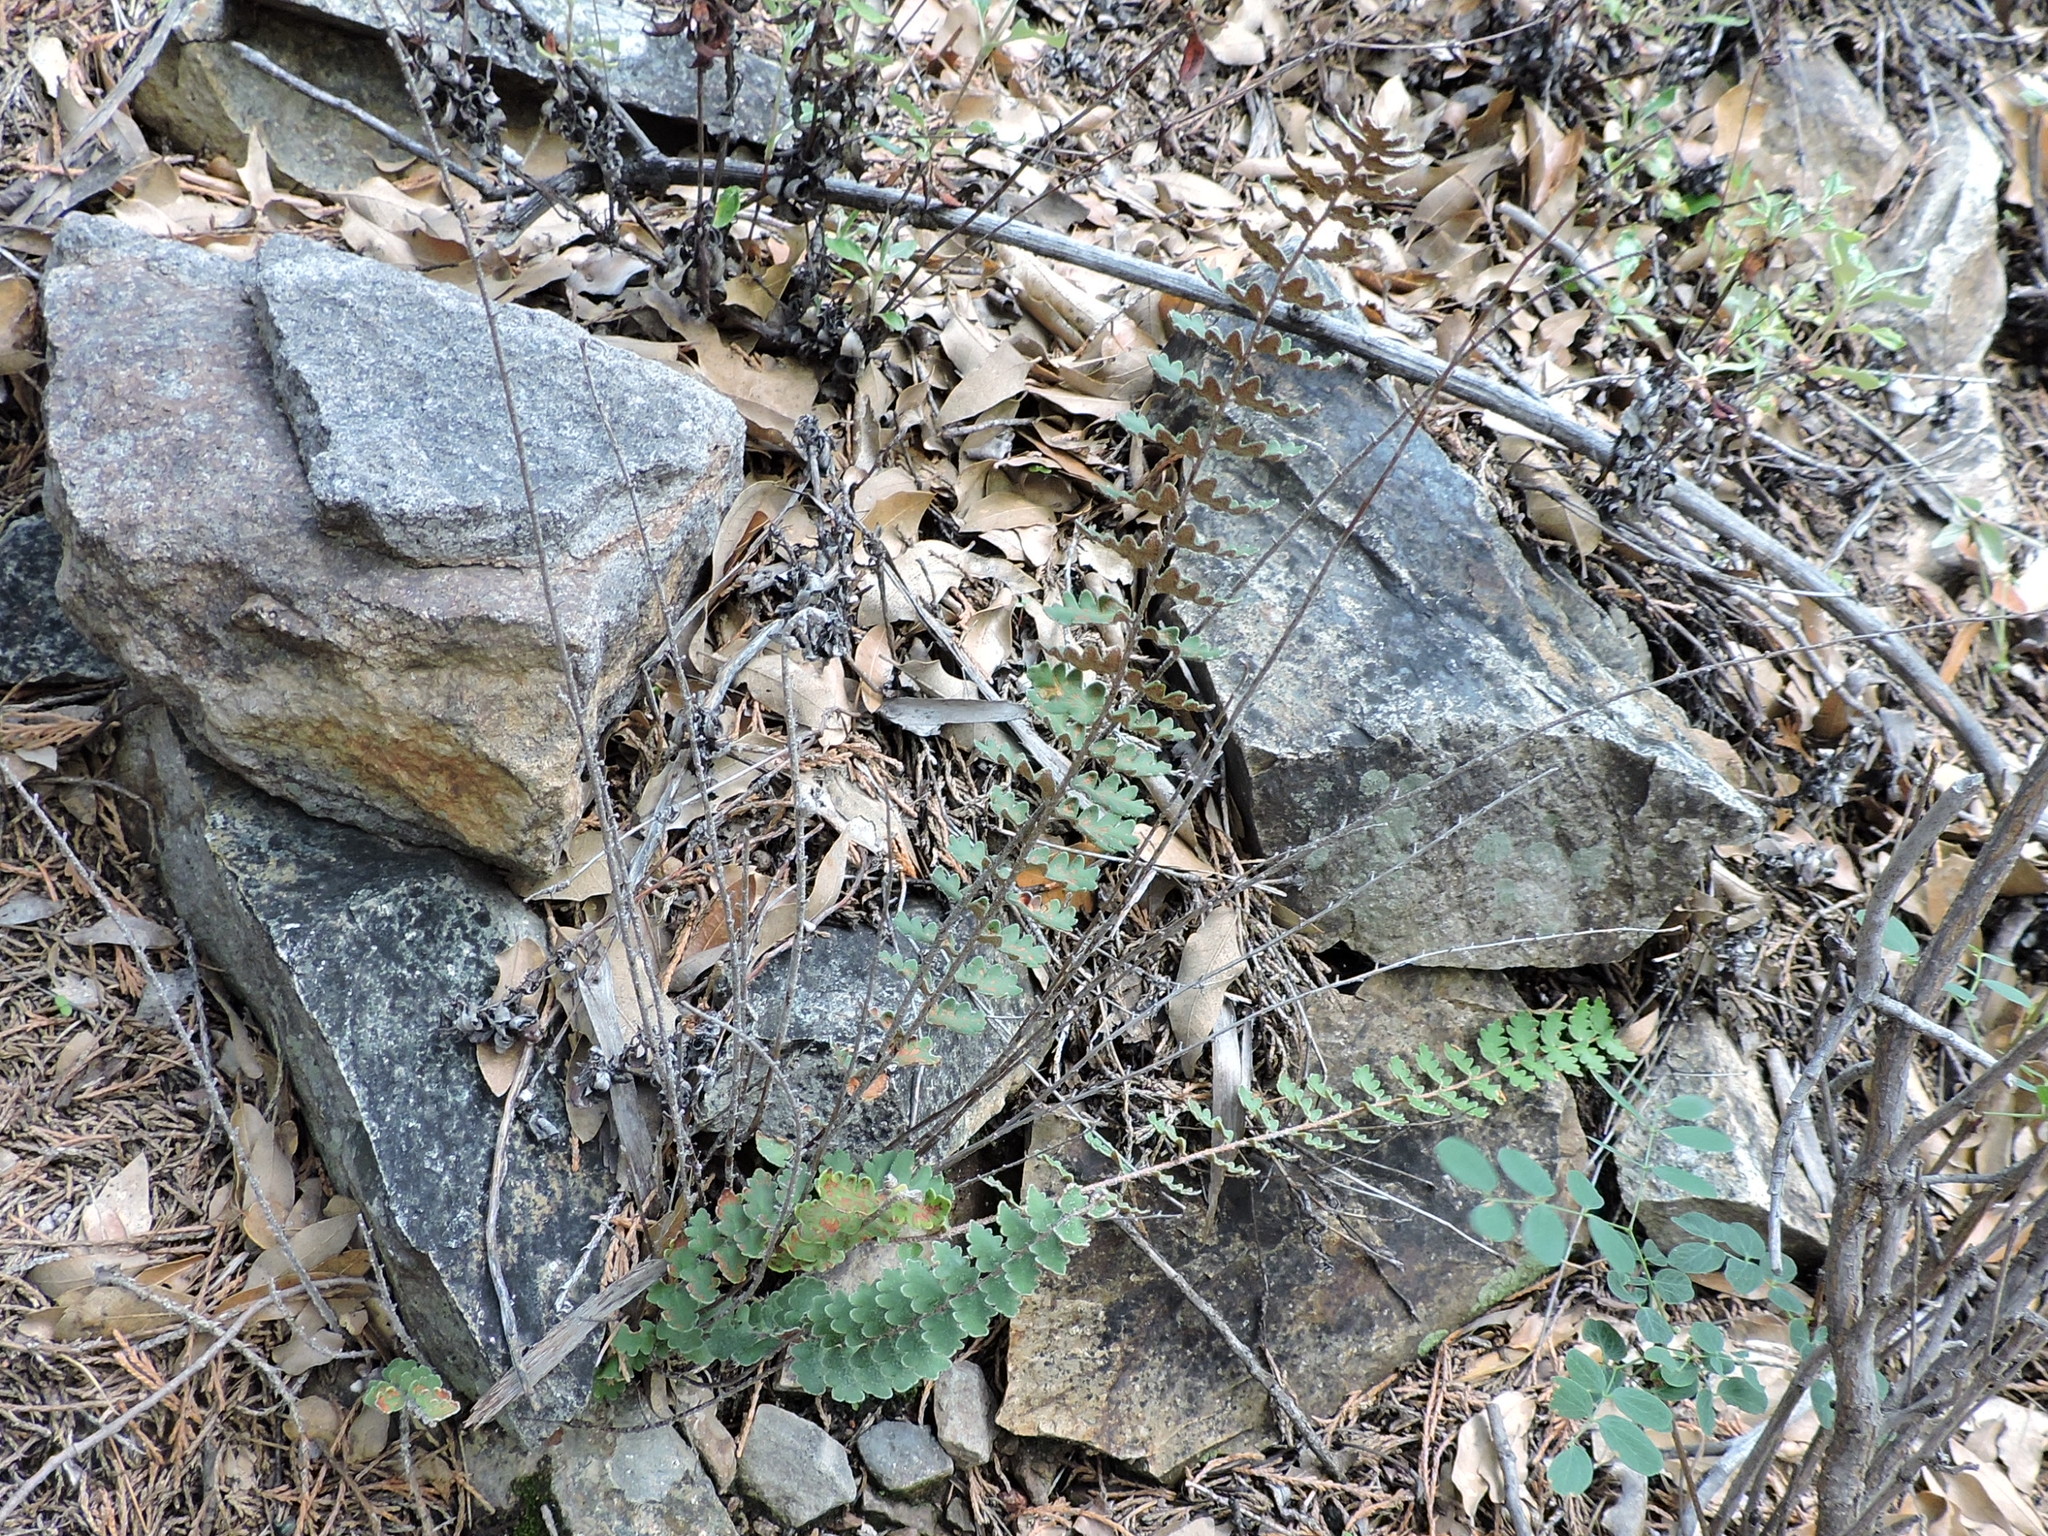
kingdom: Plantae
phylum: Tracheophyta
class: Polypodiopsida
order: Polypodiales
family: Pteridaceae
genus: Astrolepis
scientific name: Astrolepis sinuata
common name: Wavy scaly cloakfern
